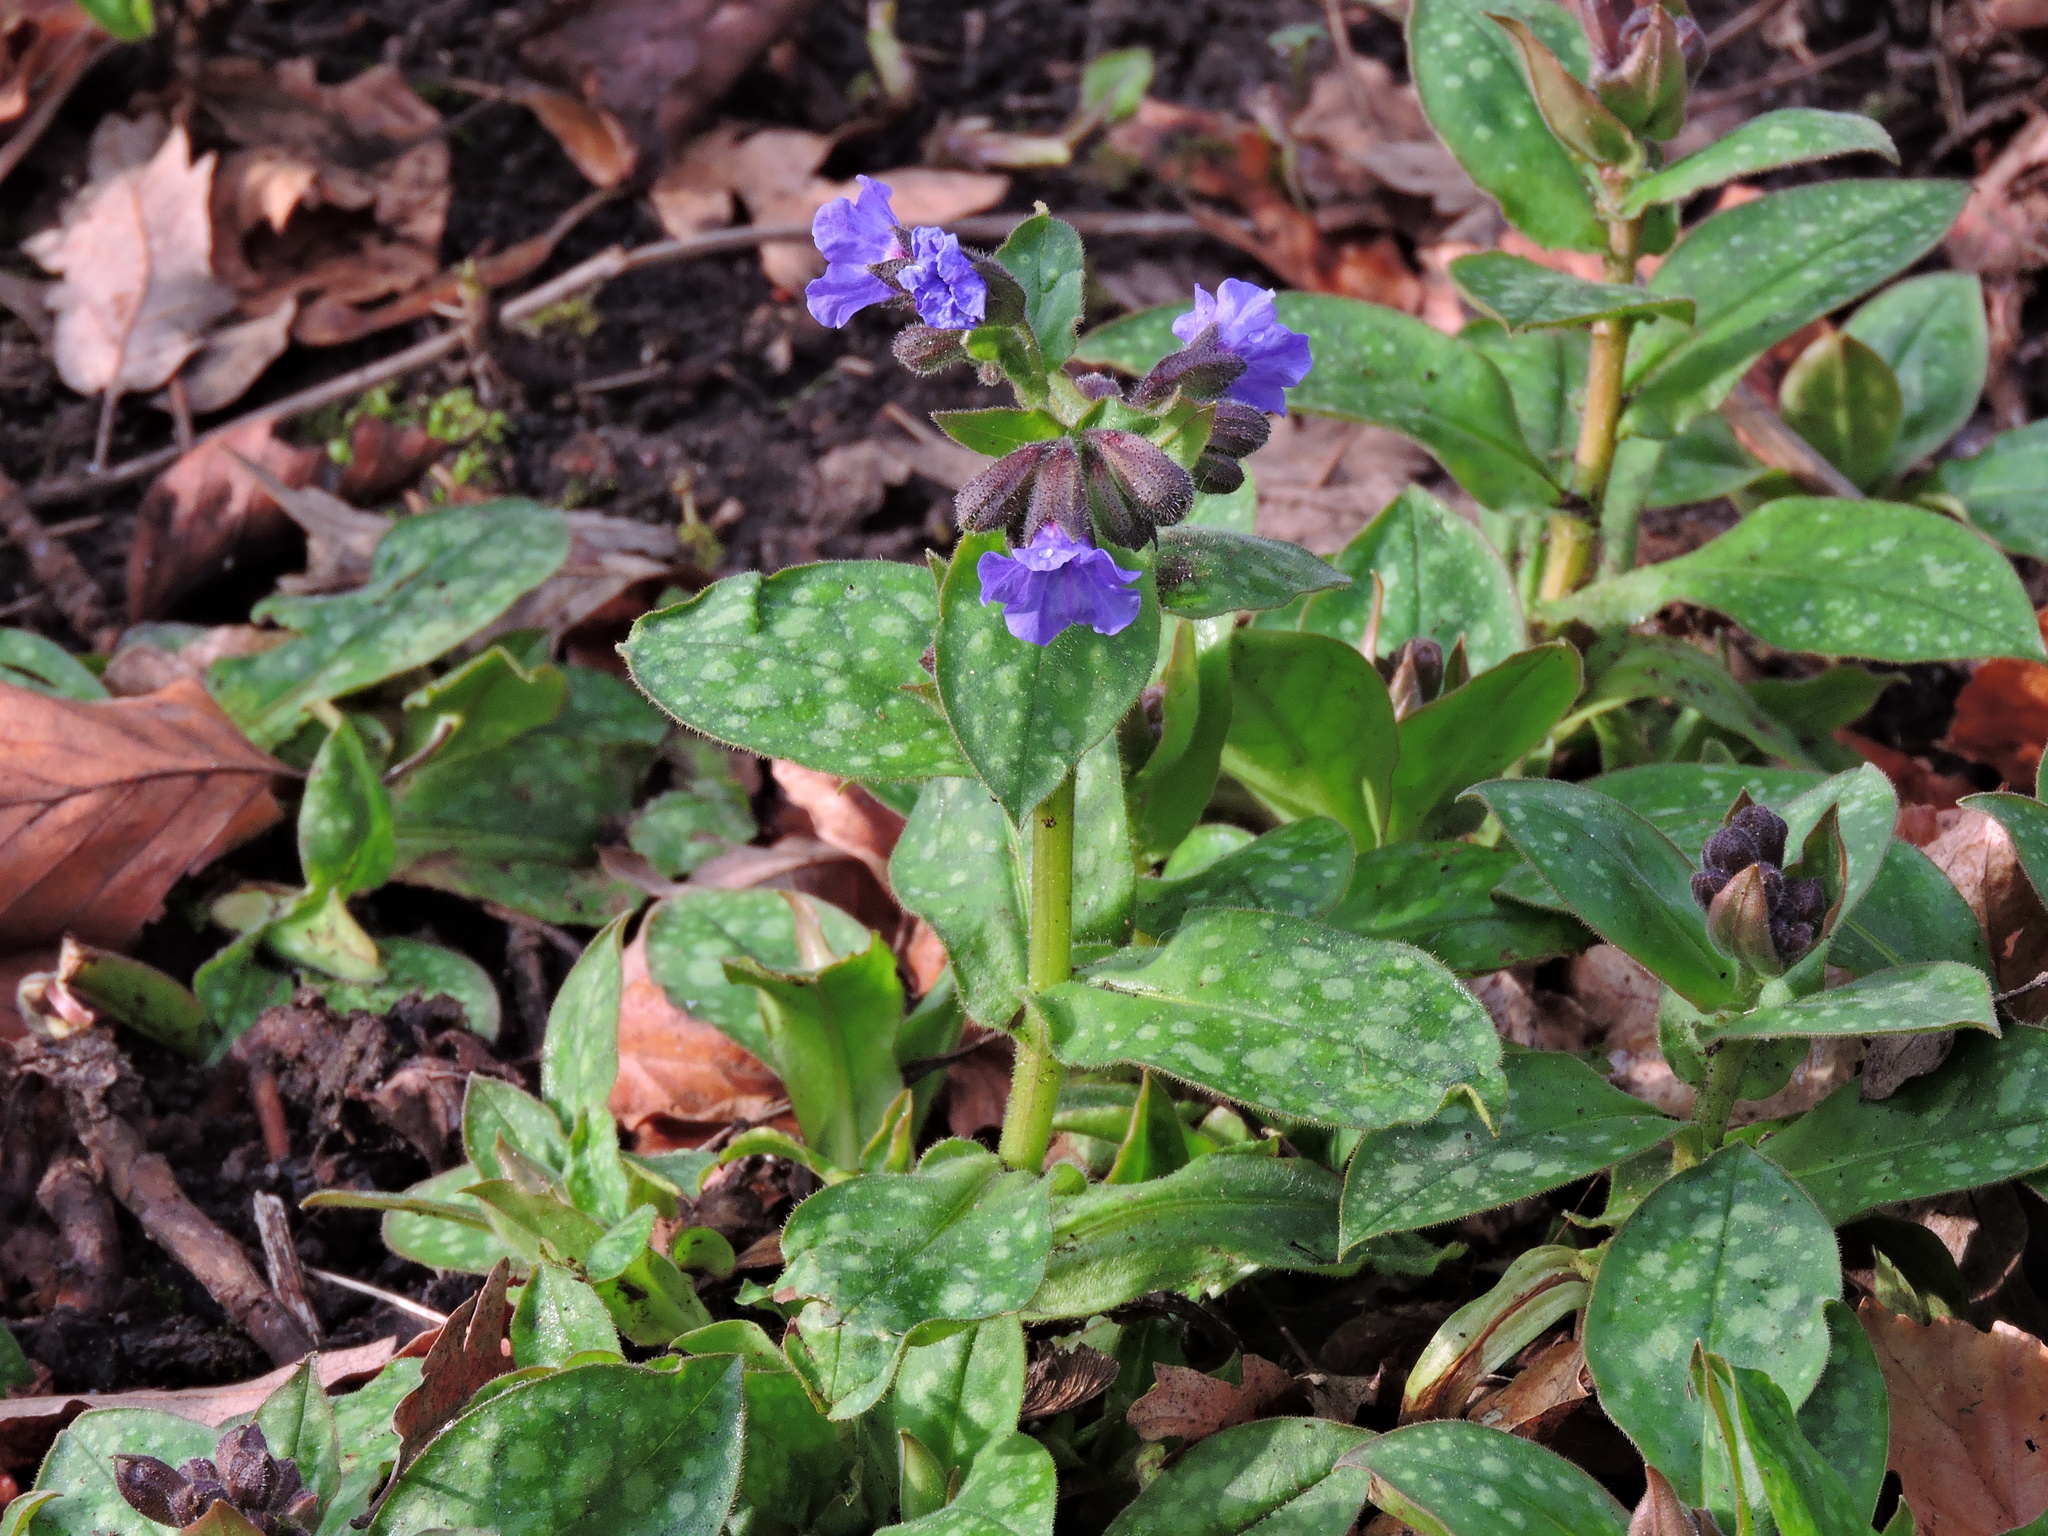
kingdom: Plantae
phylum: Tracheophyta
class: Magnoliopsida
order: Boraginales
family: Boraginaceae
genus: Pulmonaria
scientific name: Pulmonaria officinalis
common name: Lungwort
